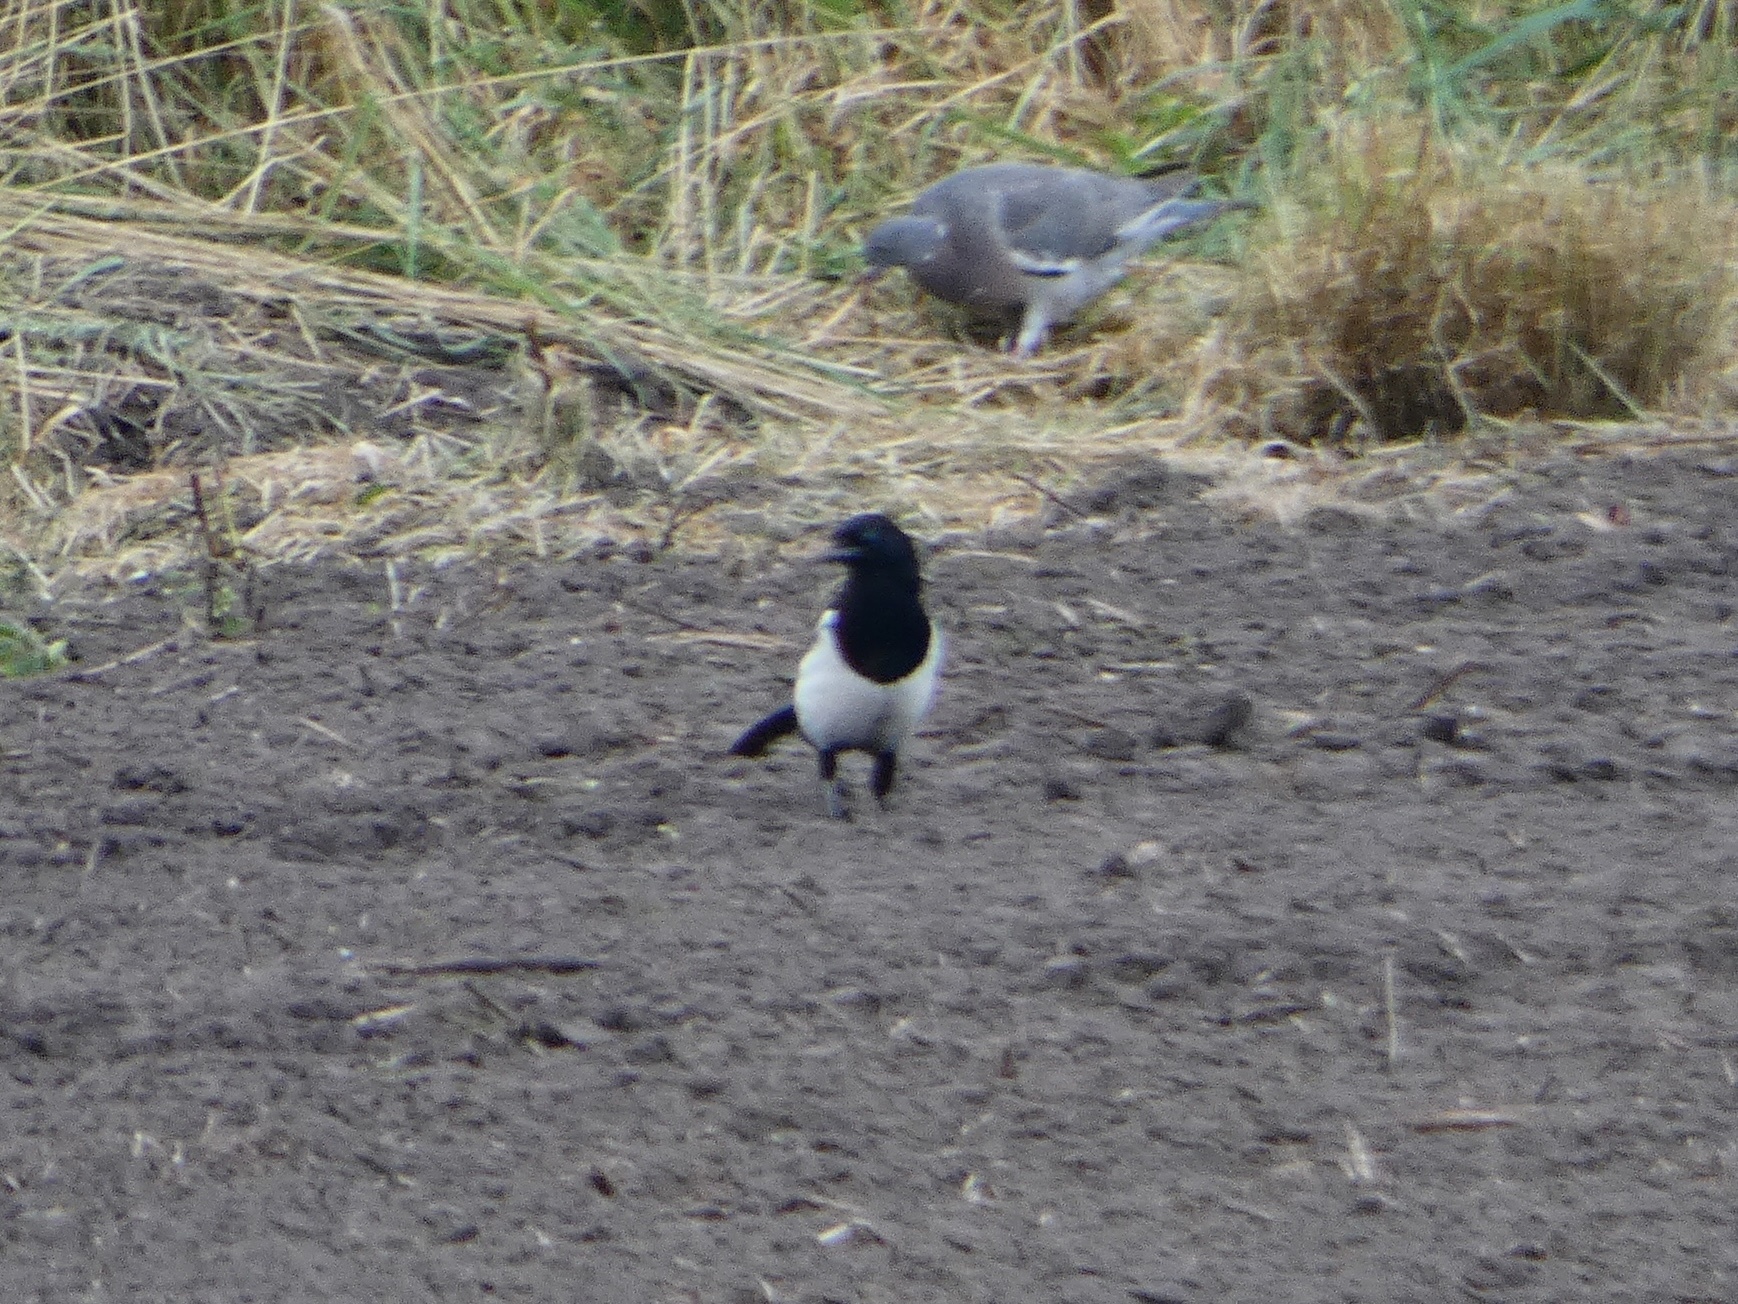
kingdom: Animalia
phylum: Chordata
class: Aves
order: Passeriformes
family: Corvidae
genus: Pica
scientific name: Pica pica
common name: Eurasian magpie
